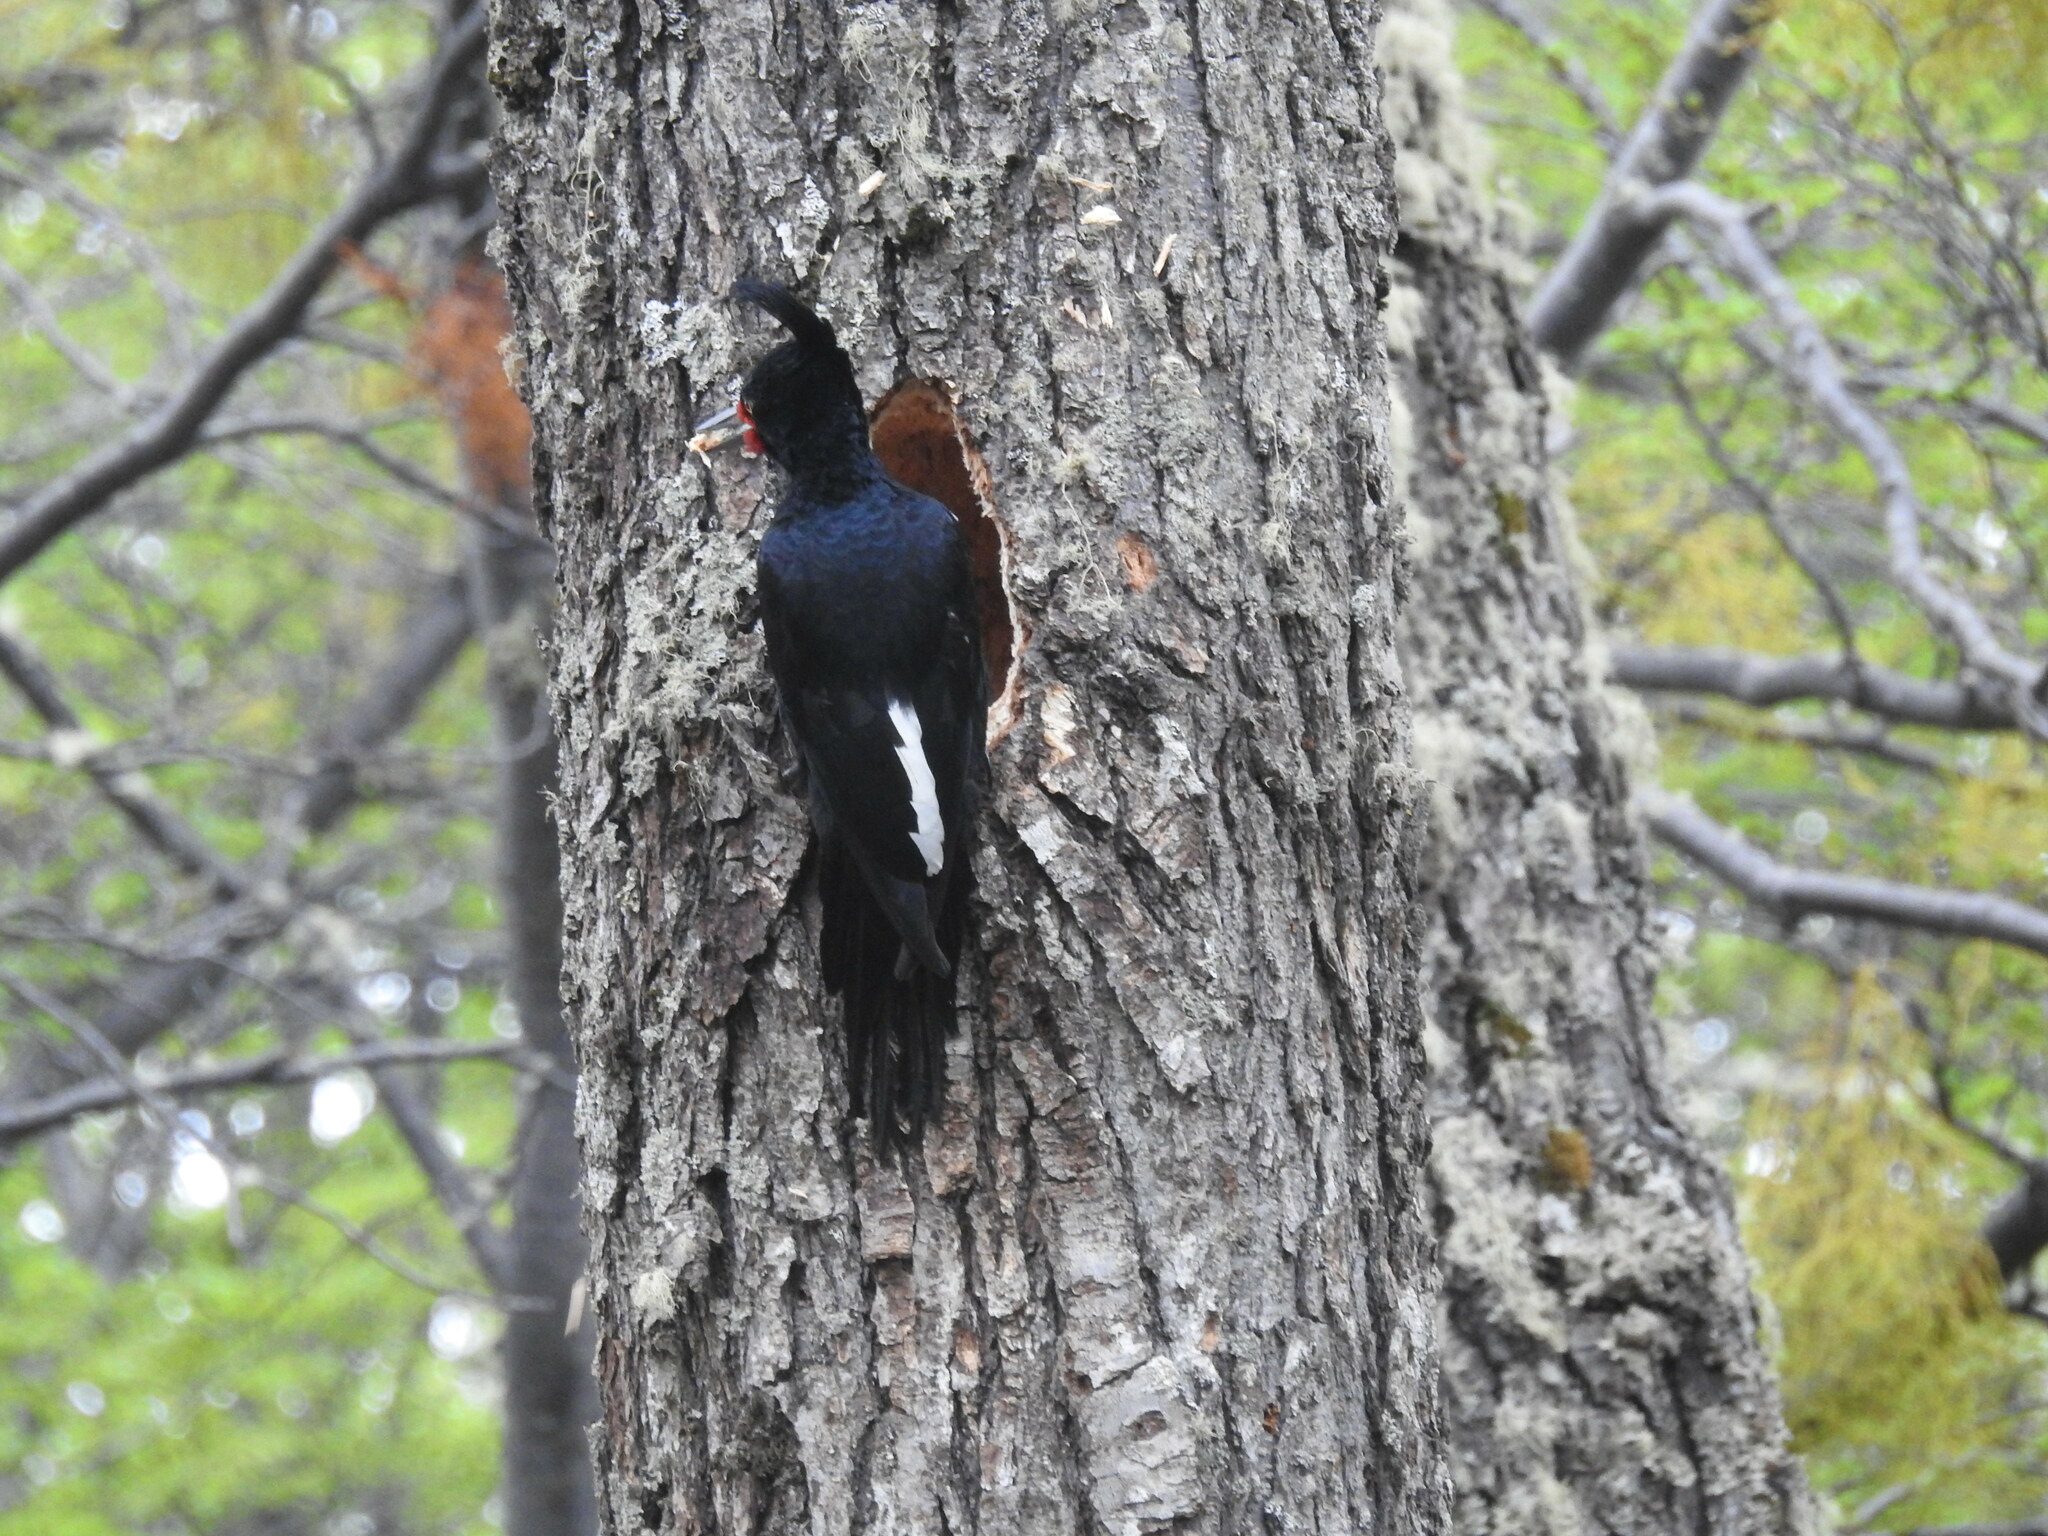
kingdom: Animalia
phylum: Chordata
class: Aves
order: Piciformes
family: Picidae
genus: Campephilus
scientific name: Campephilus magellanicus
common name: Magellanic woodpecker
